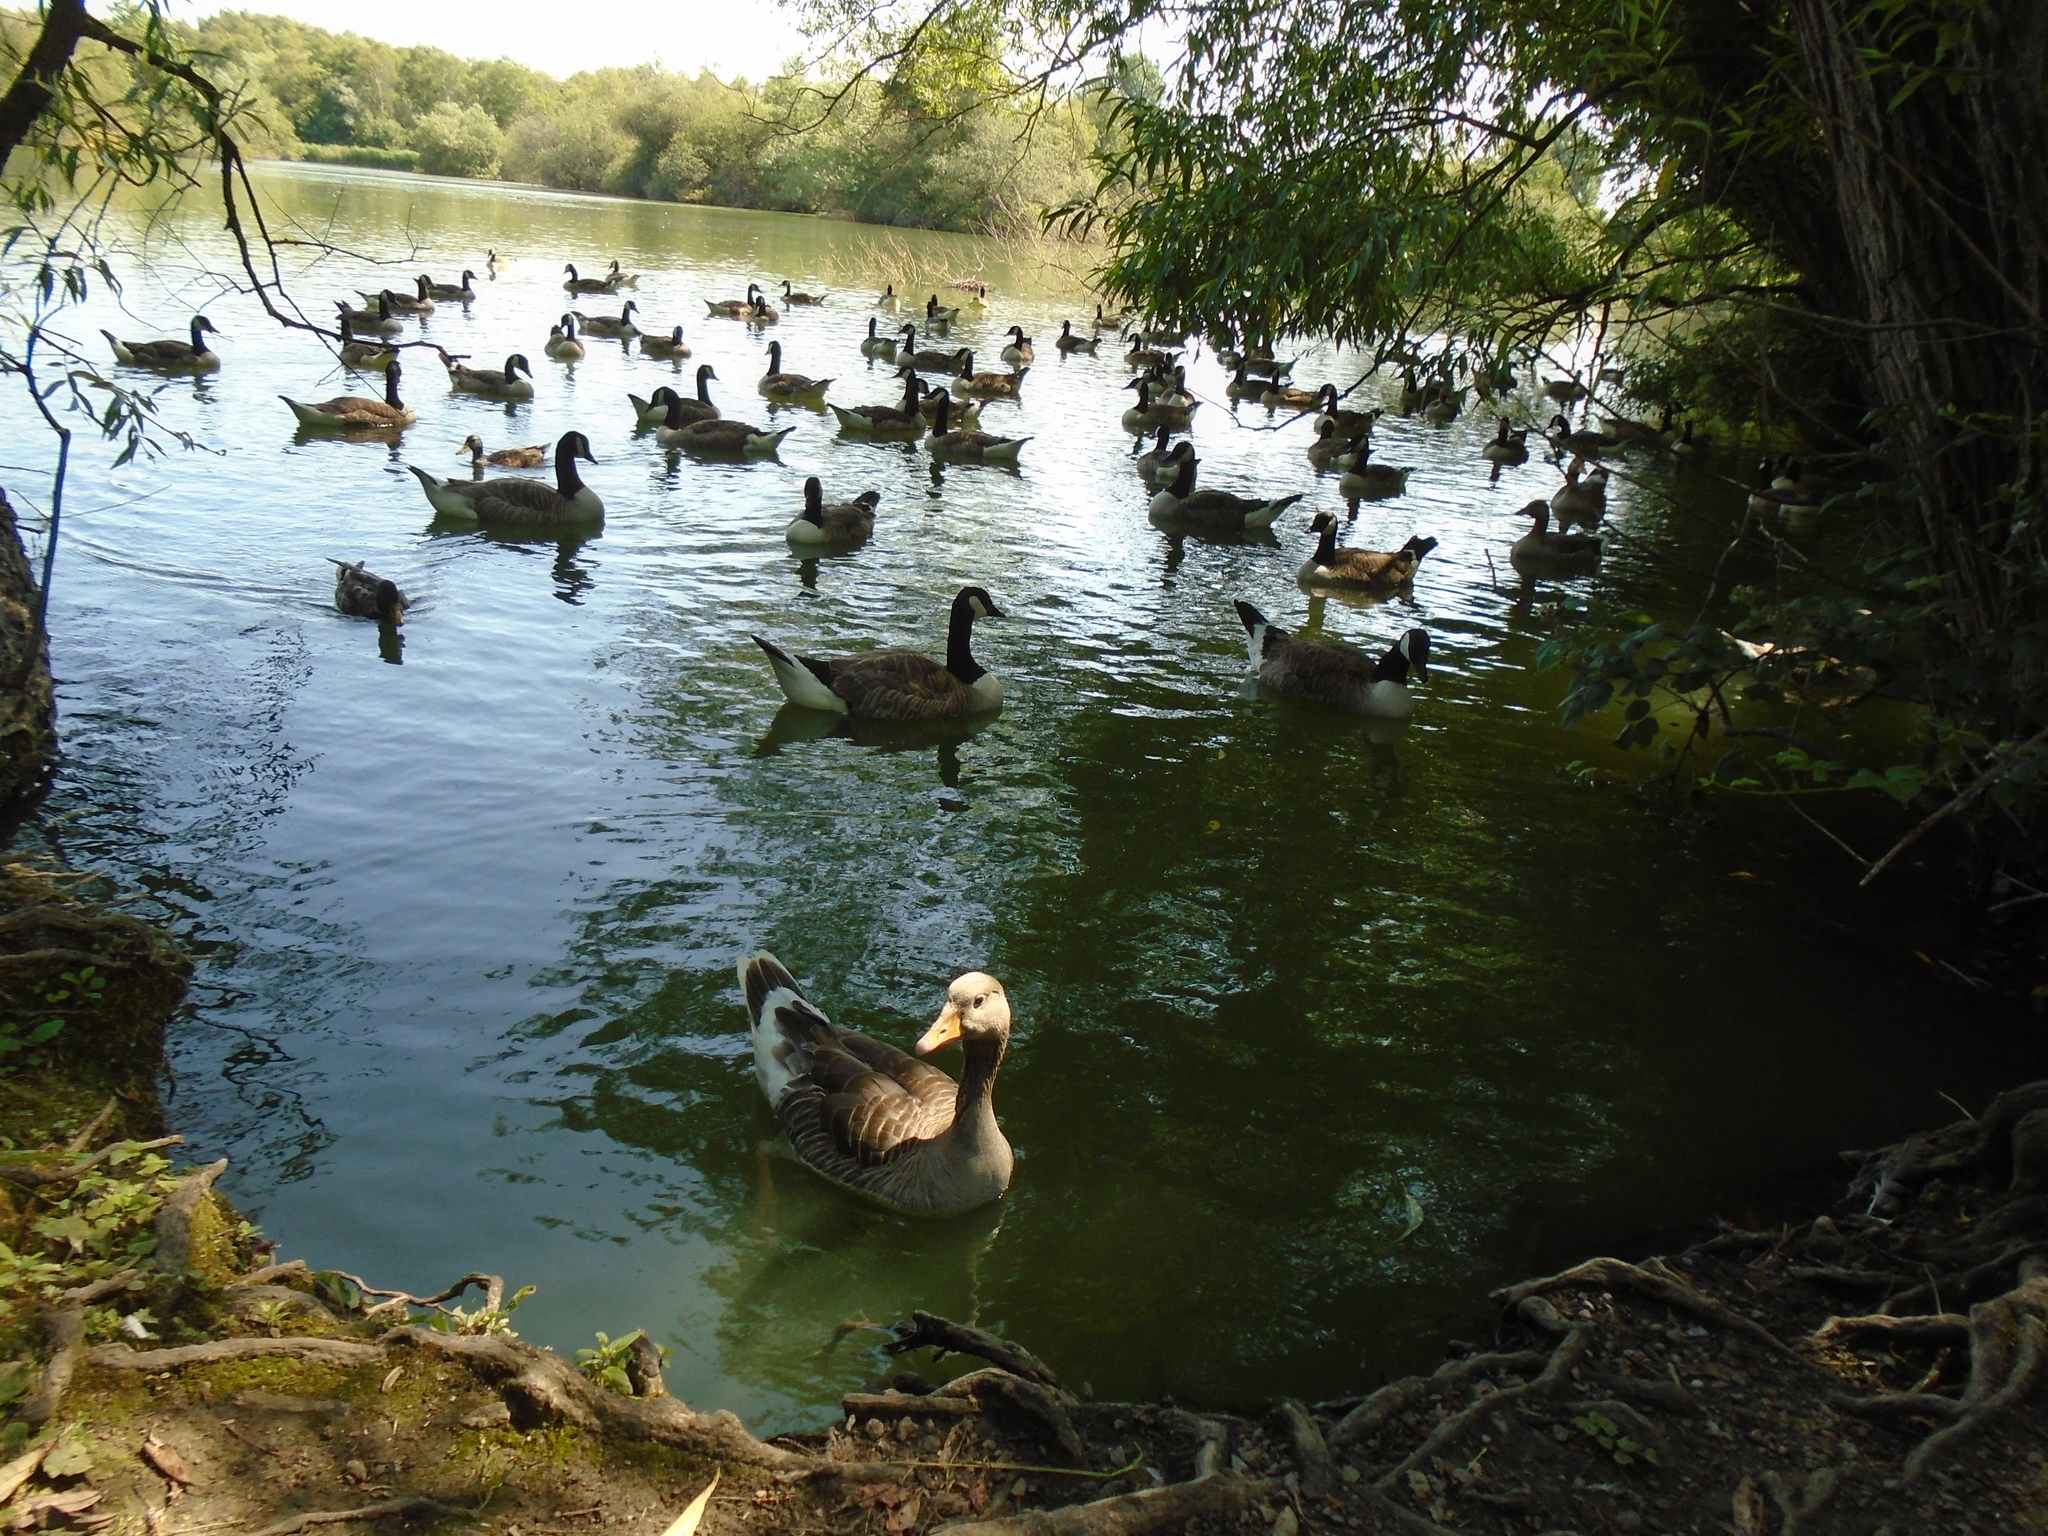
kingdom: Animalia
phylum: Chordata
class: Aves
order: Anseriformes
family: Anatidae
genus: Branta
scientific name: Branta canadensis
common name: Canada goose
